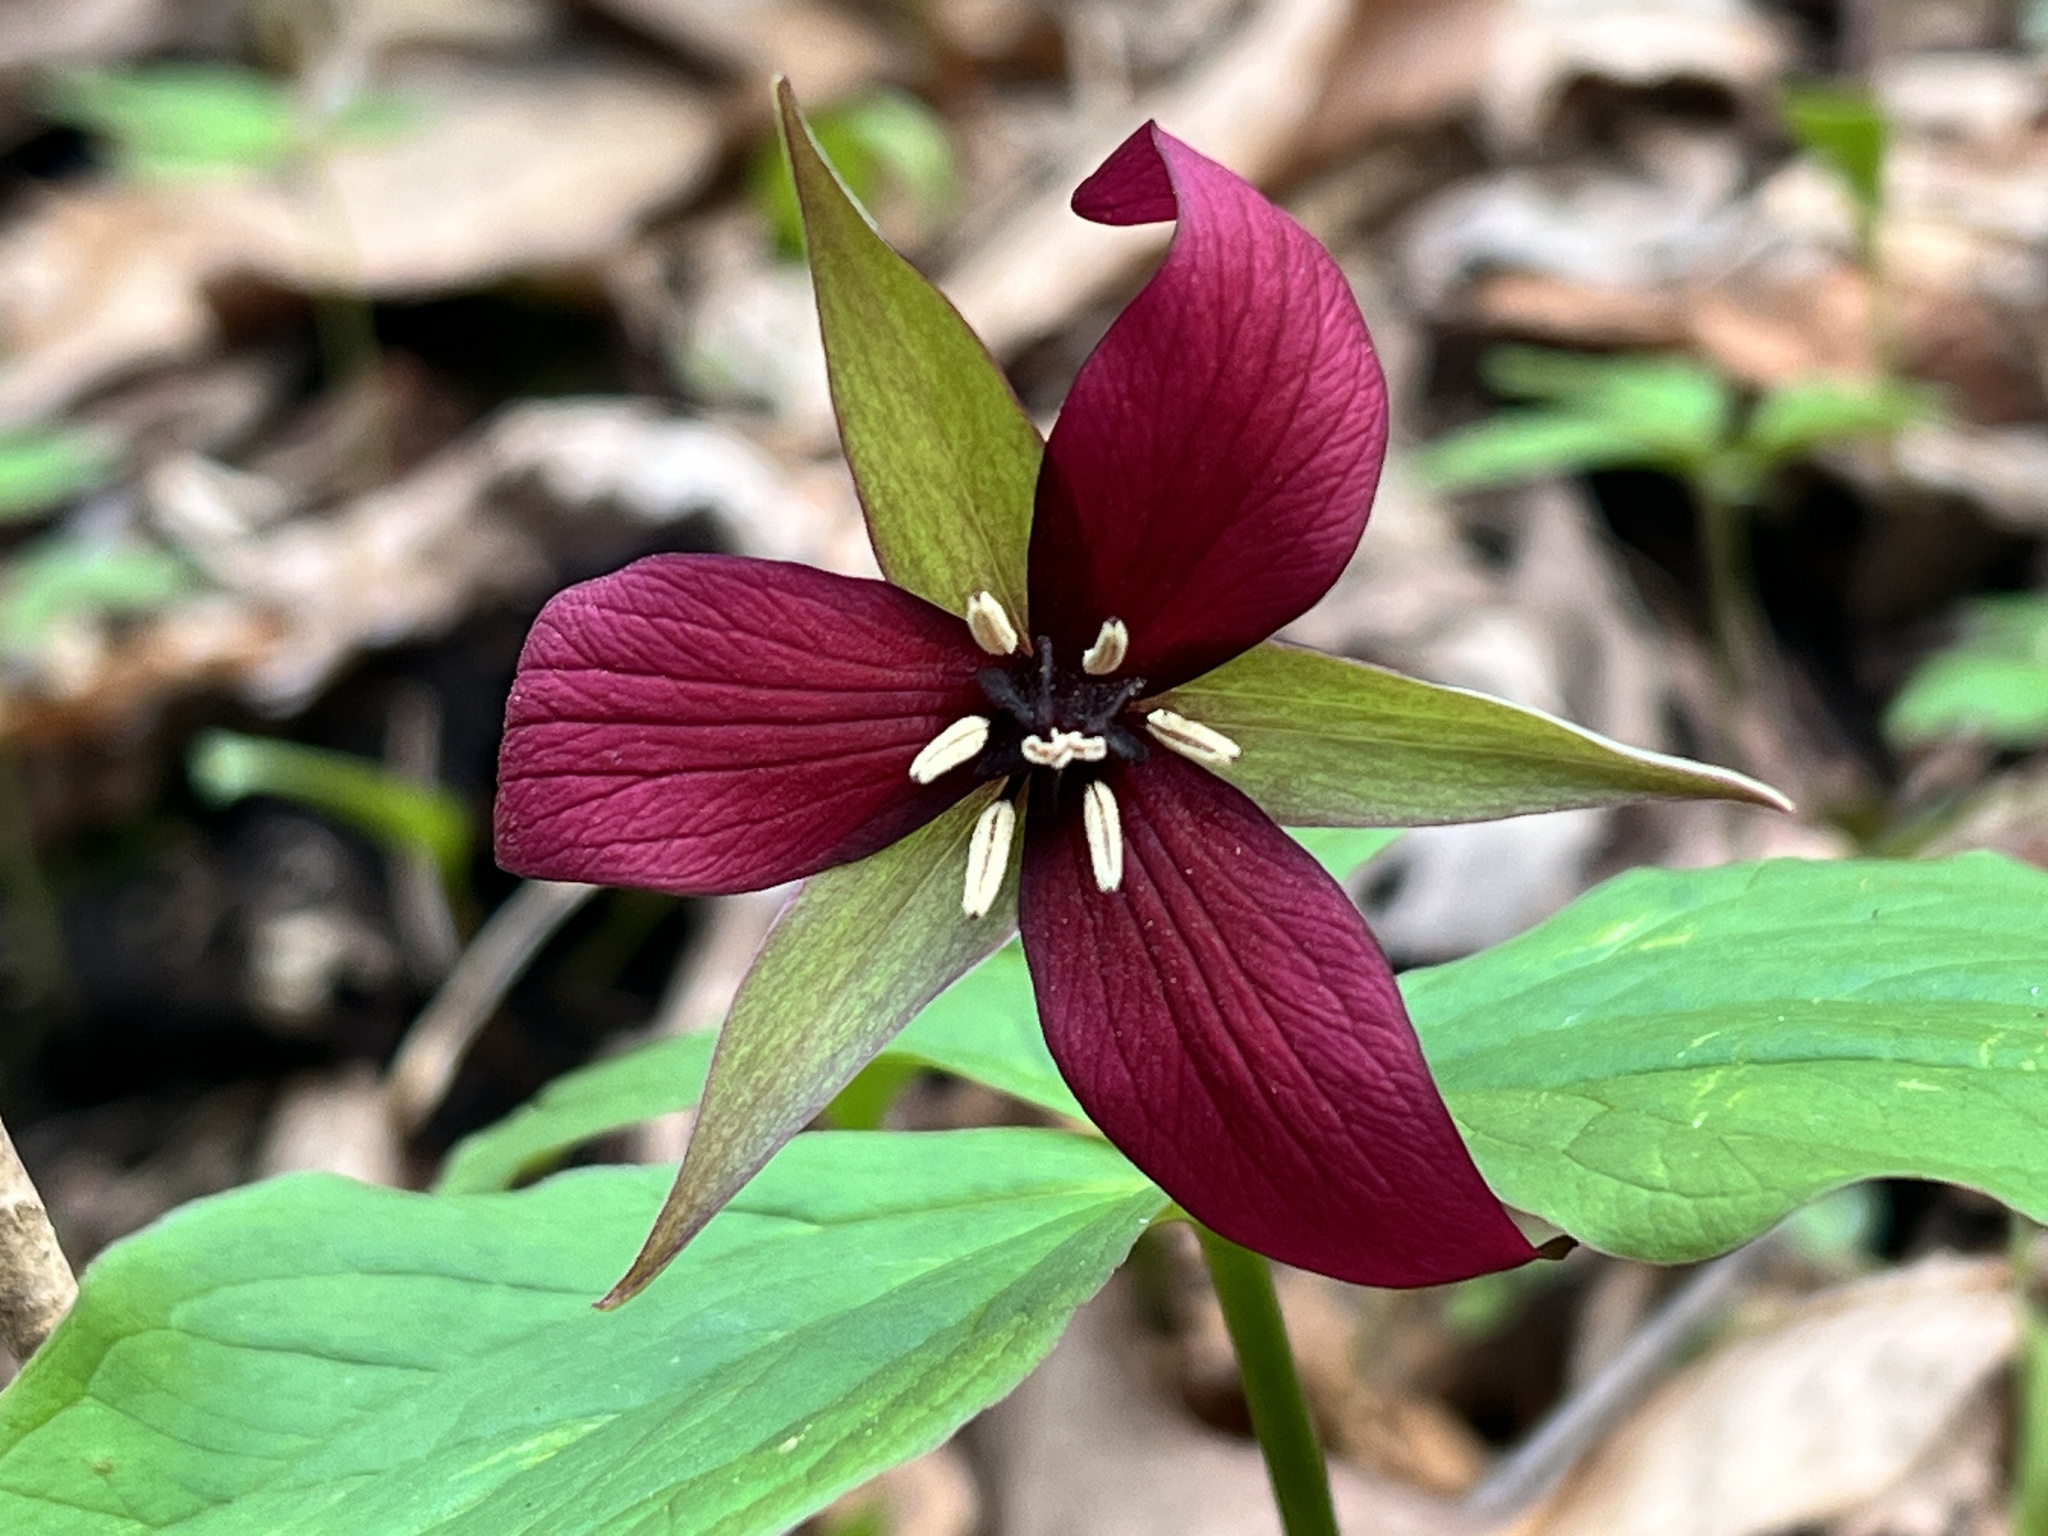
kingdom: Plantae
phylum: Tracheophyta
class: Liliopsida
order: Liliales
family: Melanthiaceae
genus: Trillium
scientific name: Trillium erectum
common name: Purple trillium
